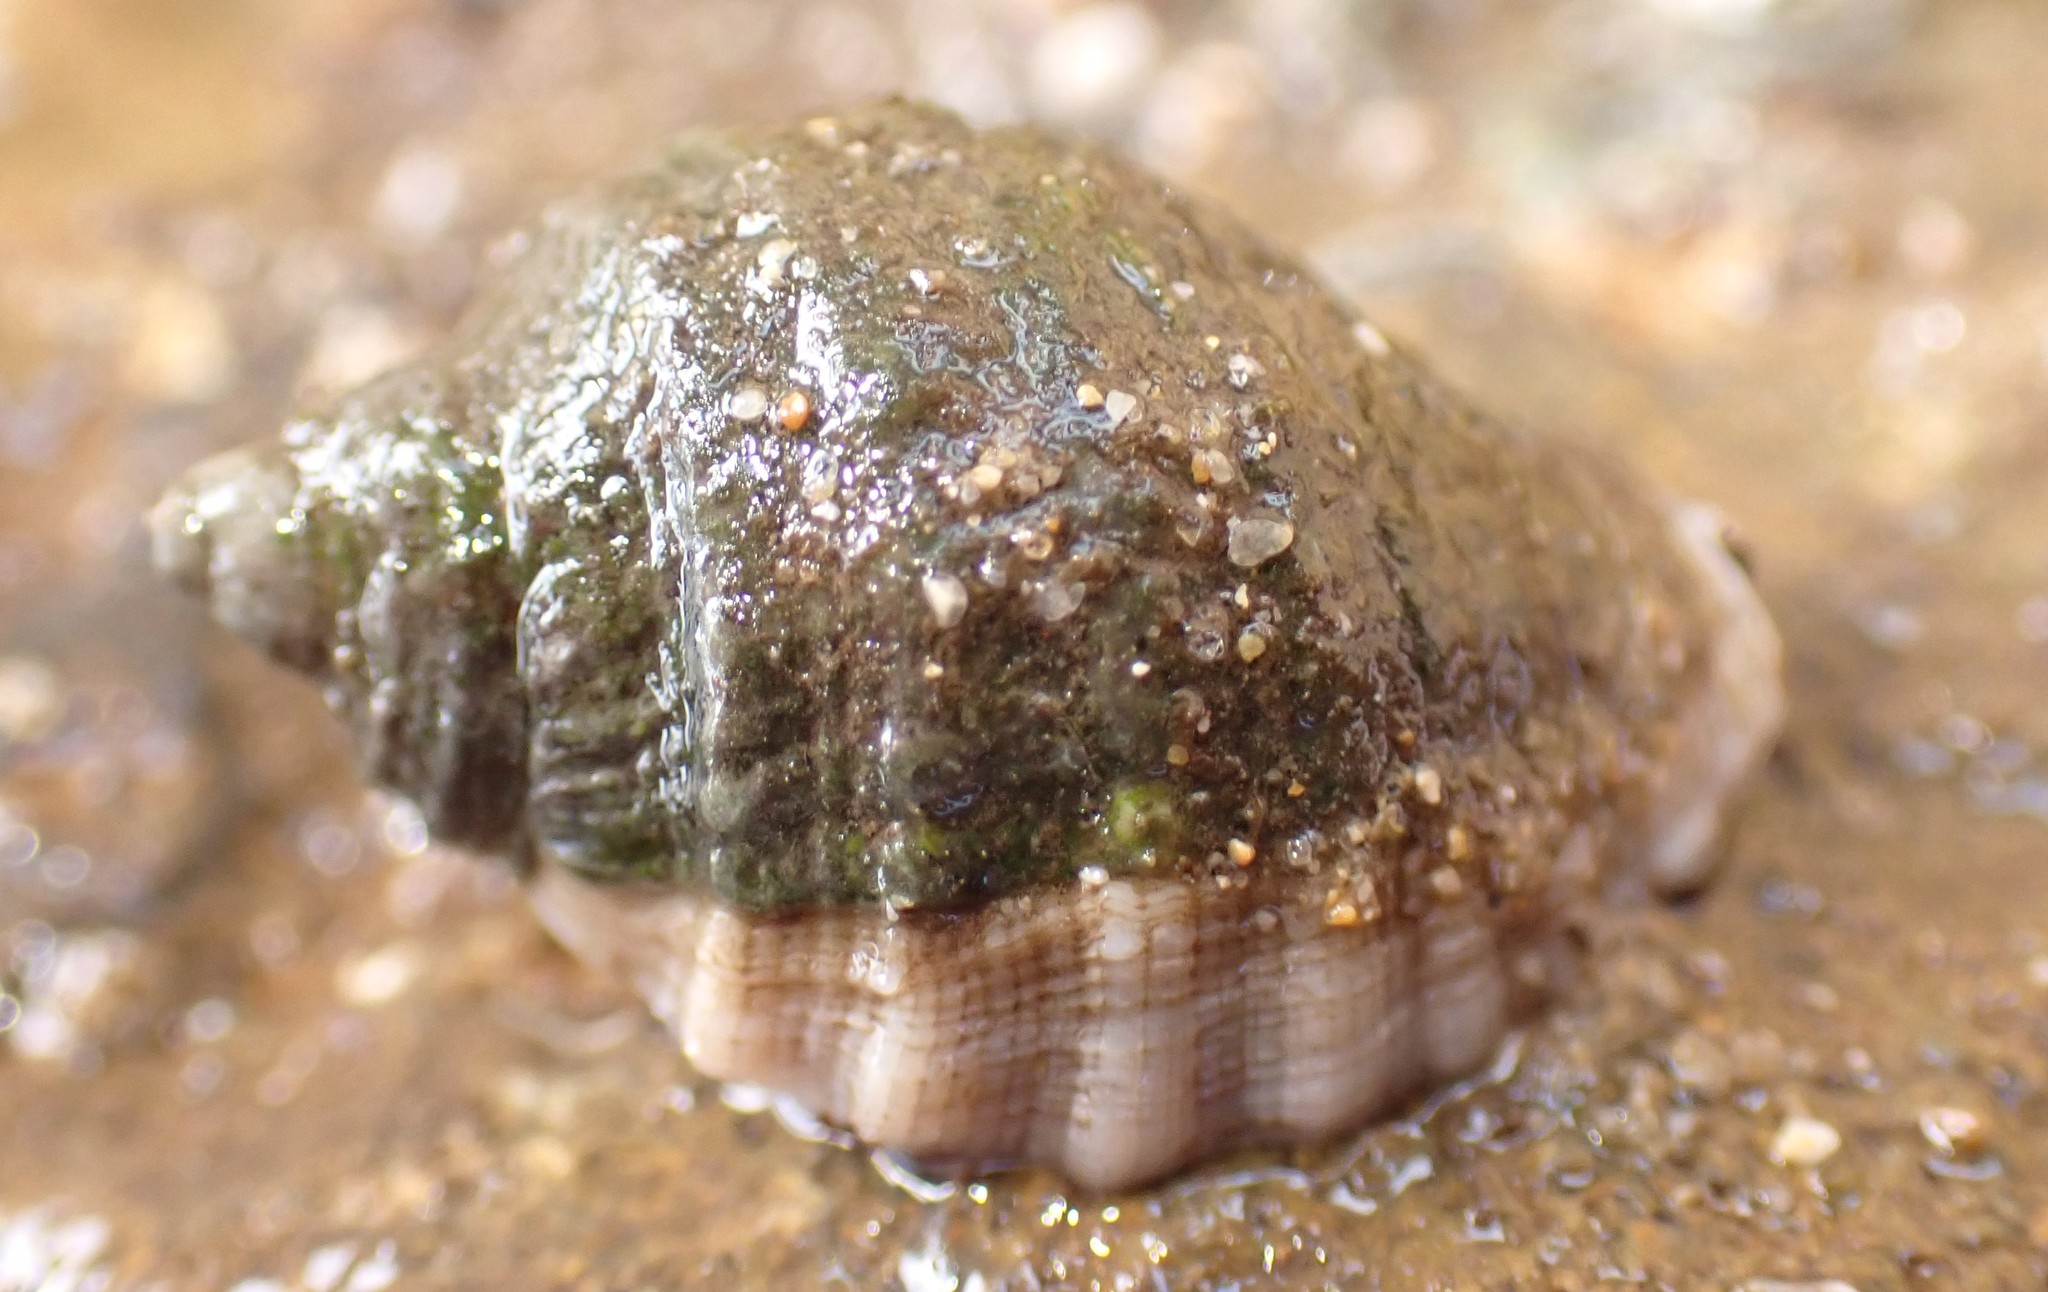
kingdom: Animalia
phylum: Mollusca
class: Gastropoda
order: Neogastropoda
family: Muricidae
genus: Dicathais
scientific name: Dicathais orbita
